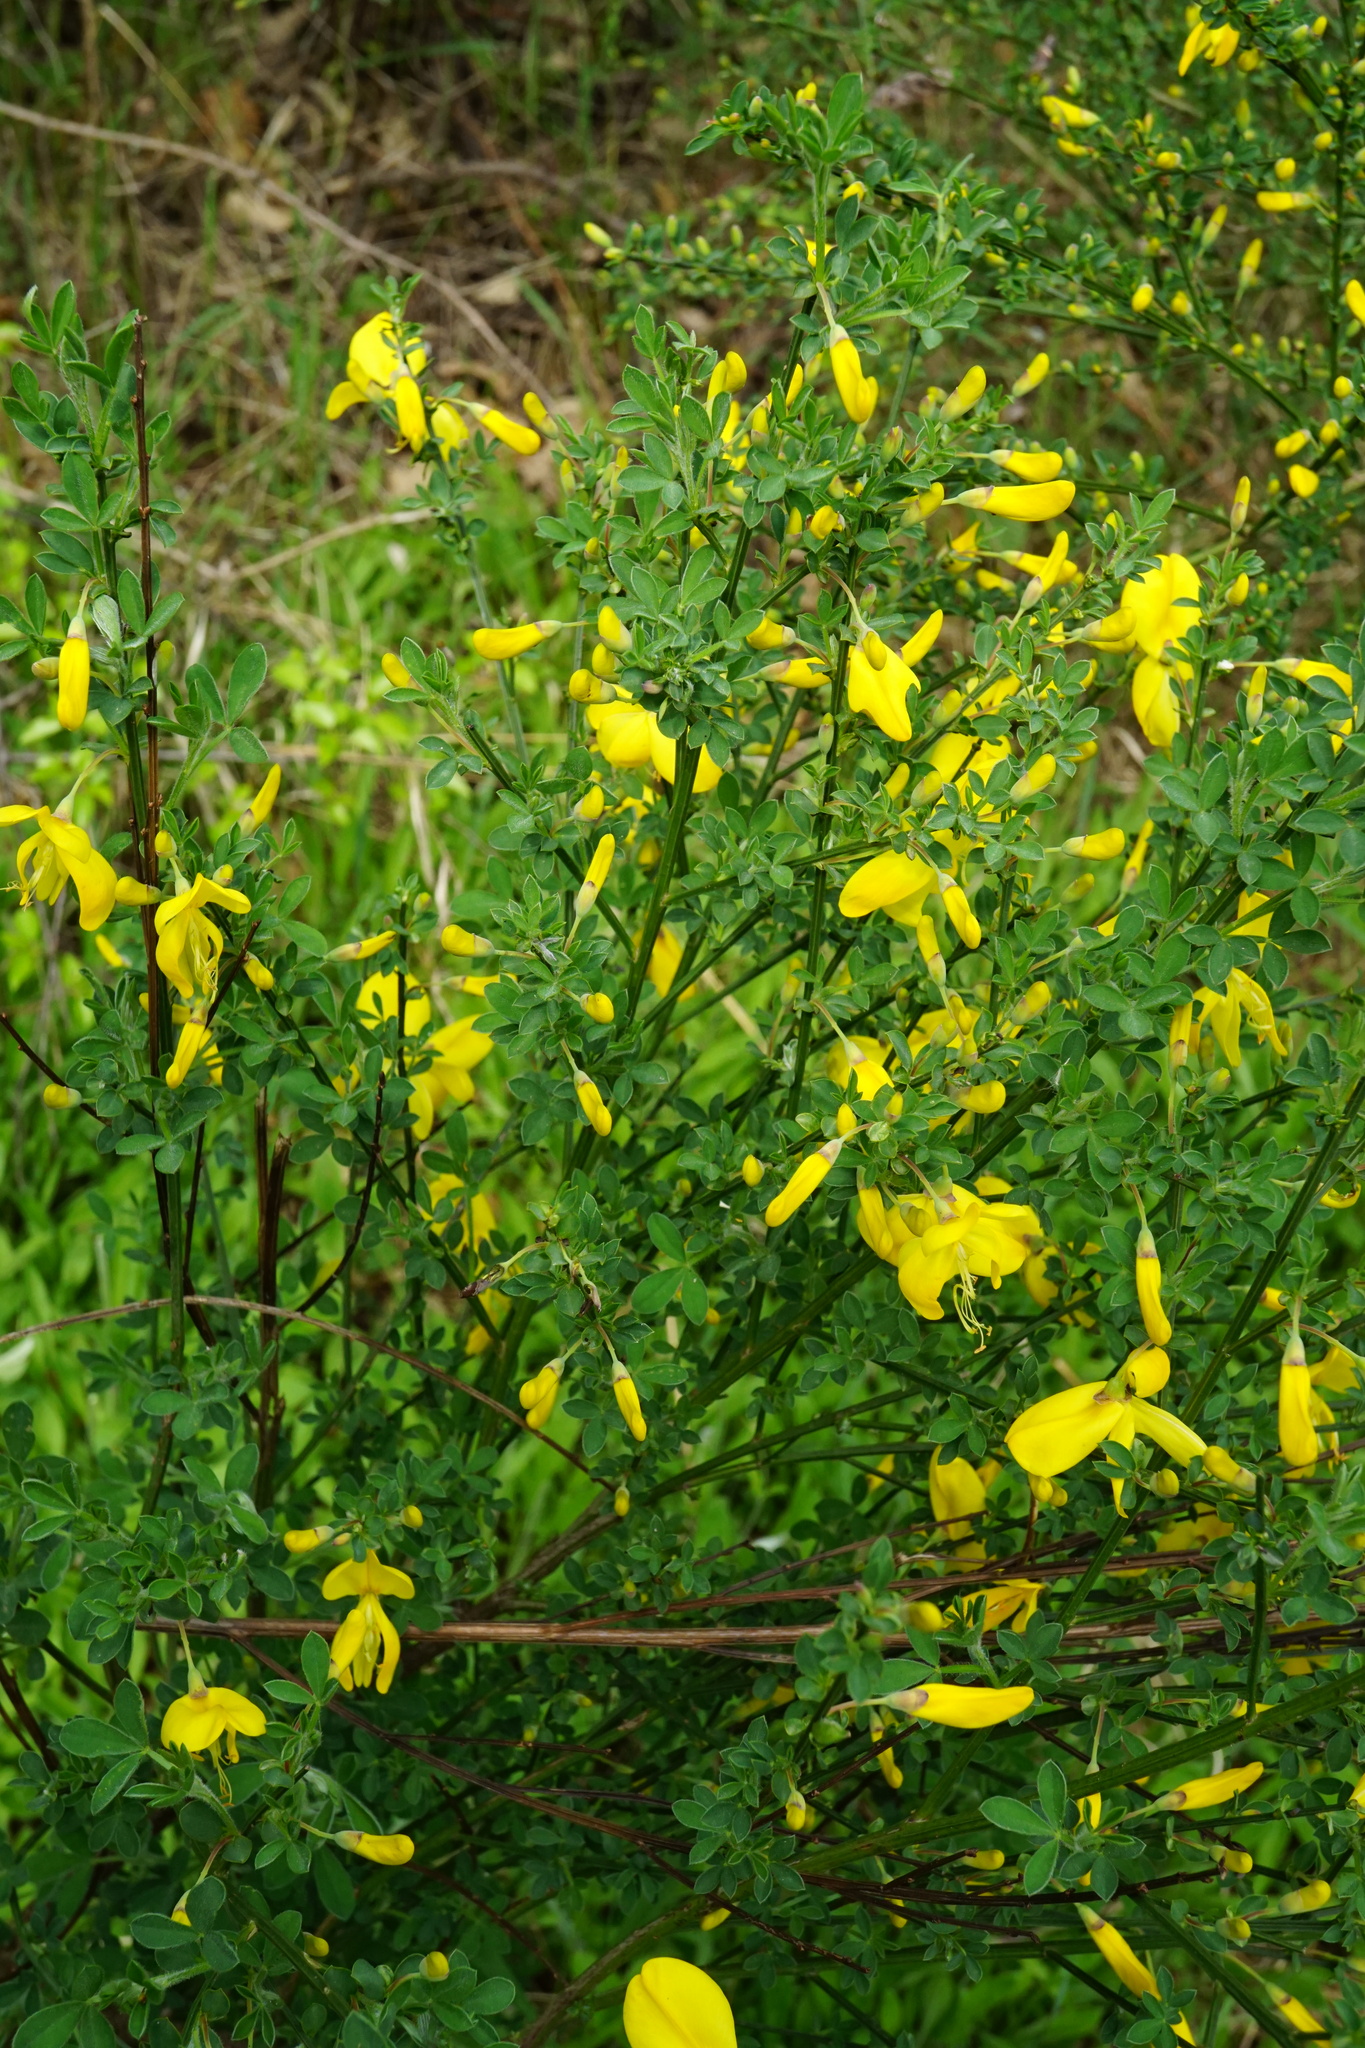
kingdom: Plantae
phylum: Tracheophyta
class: Magnoliopsida
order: Fabales
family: Fabaceae
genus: Cytisus
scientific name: Cytisus scoparius
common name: Scotch broom
